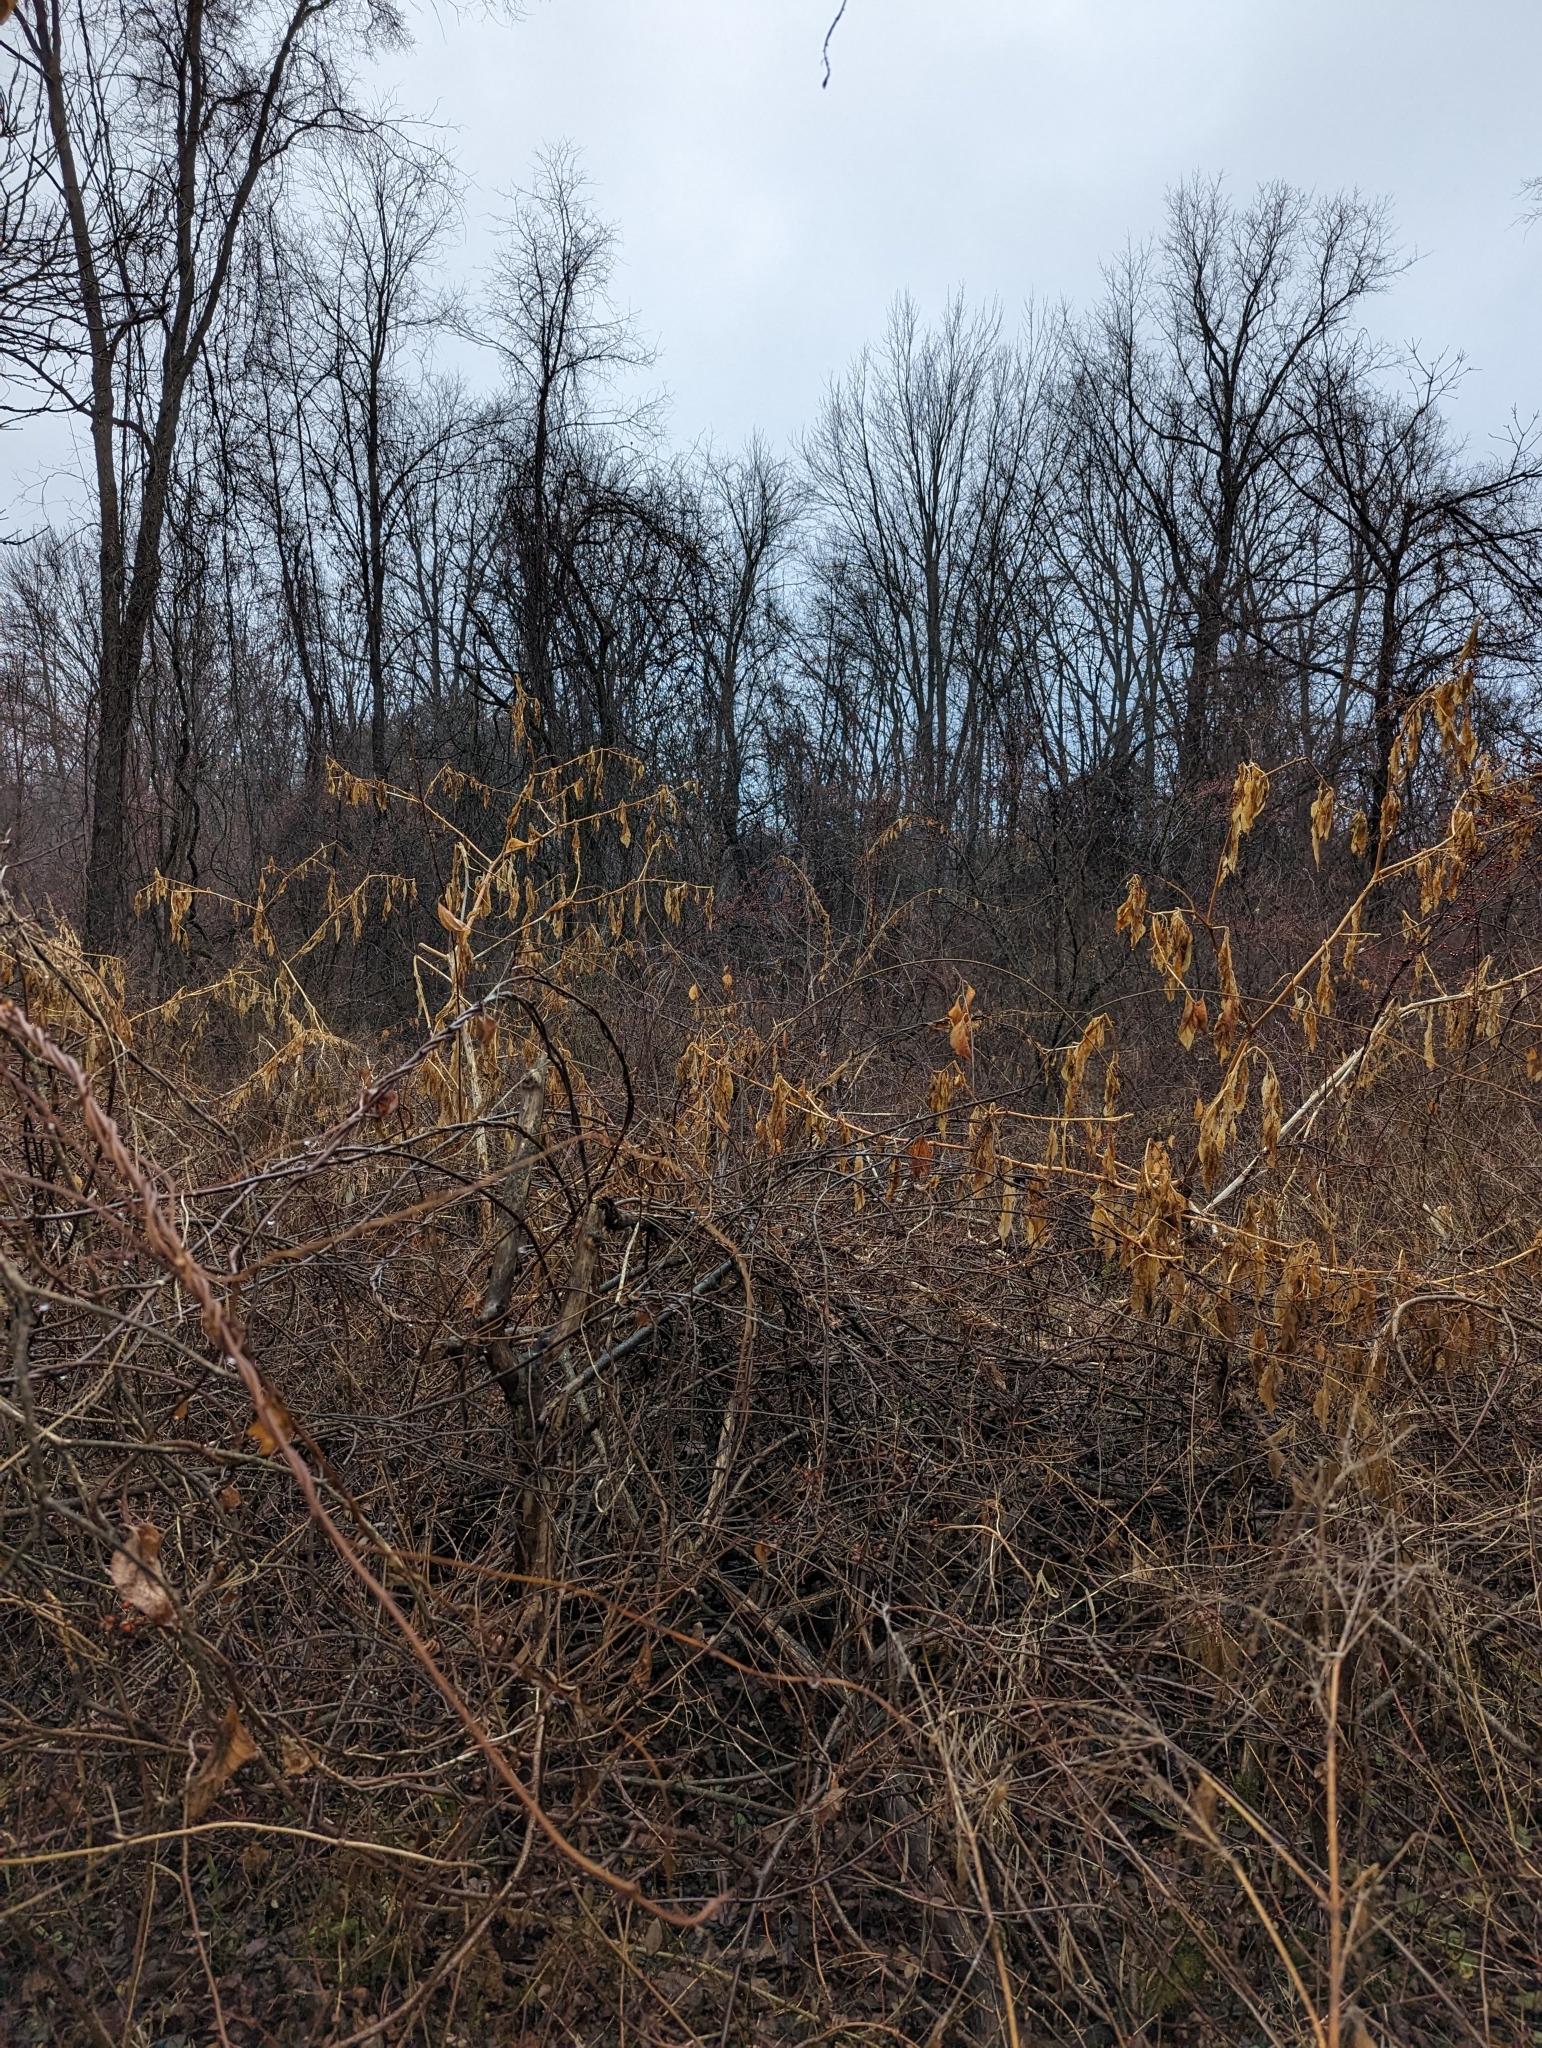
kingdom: Plantae
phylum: Tracheophyta
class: Magnoliopsida
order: Caryophyllales
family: Phytolaccaceae
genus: Phytolacca
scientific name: Phytolacca americana
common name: American pokeweed
